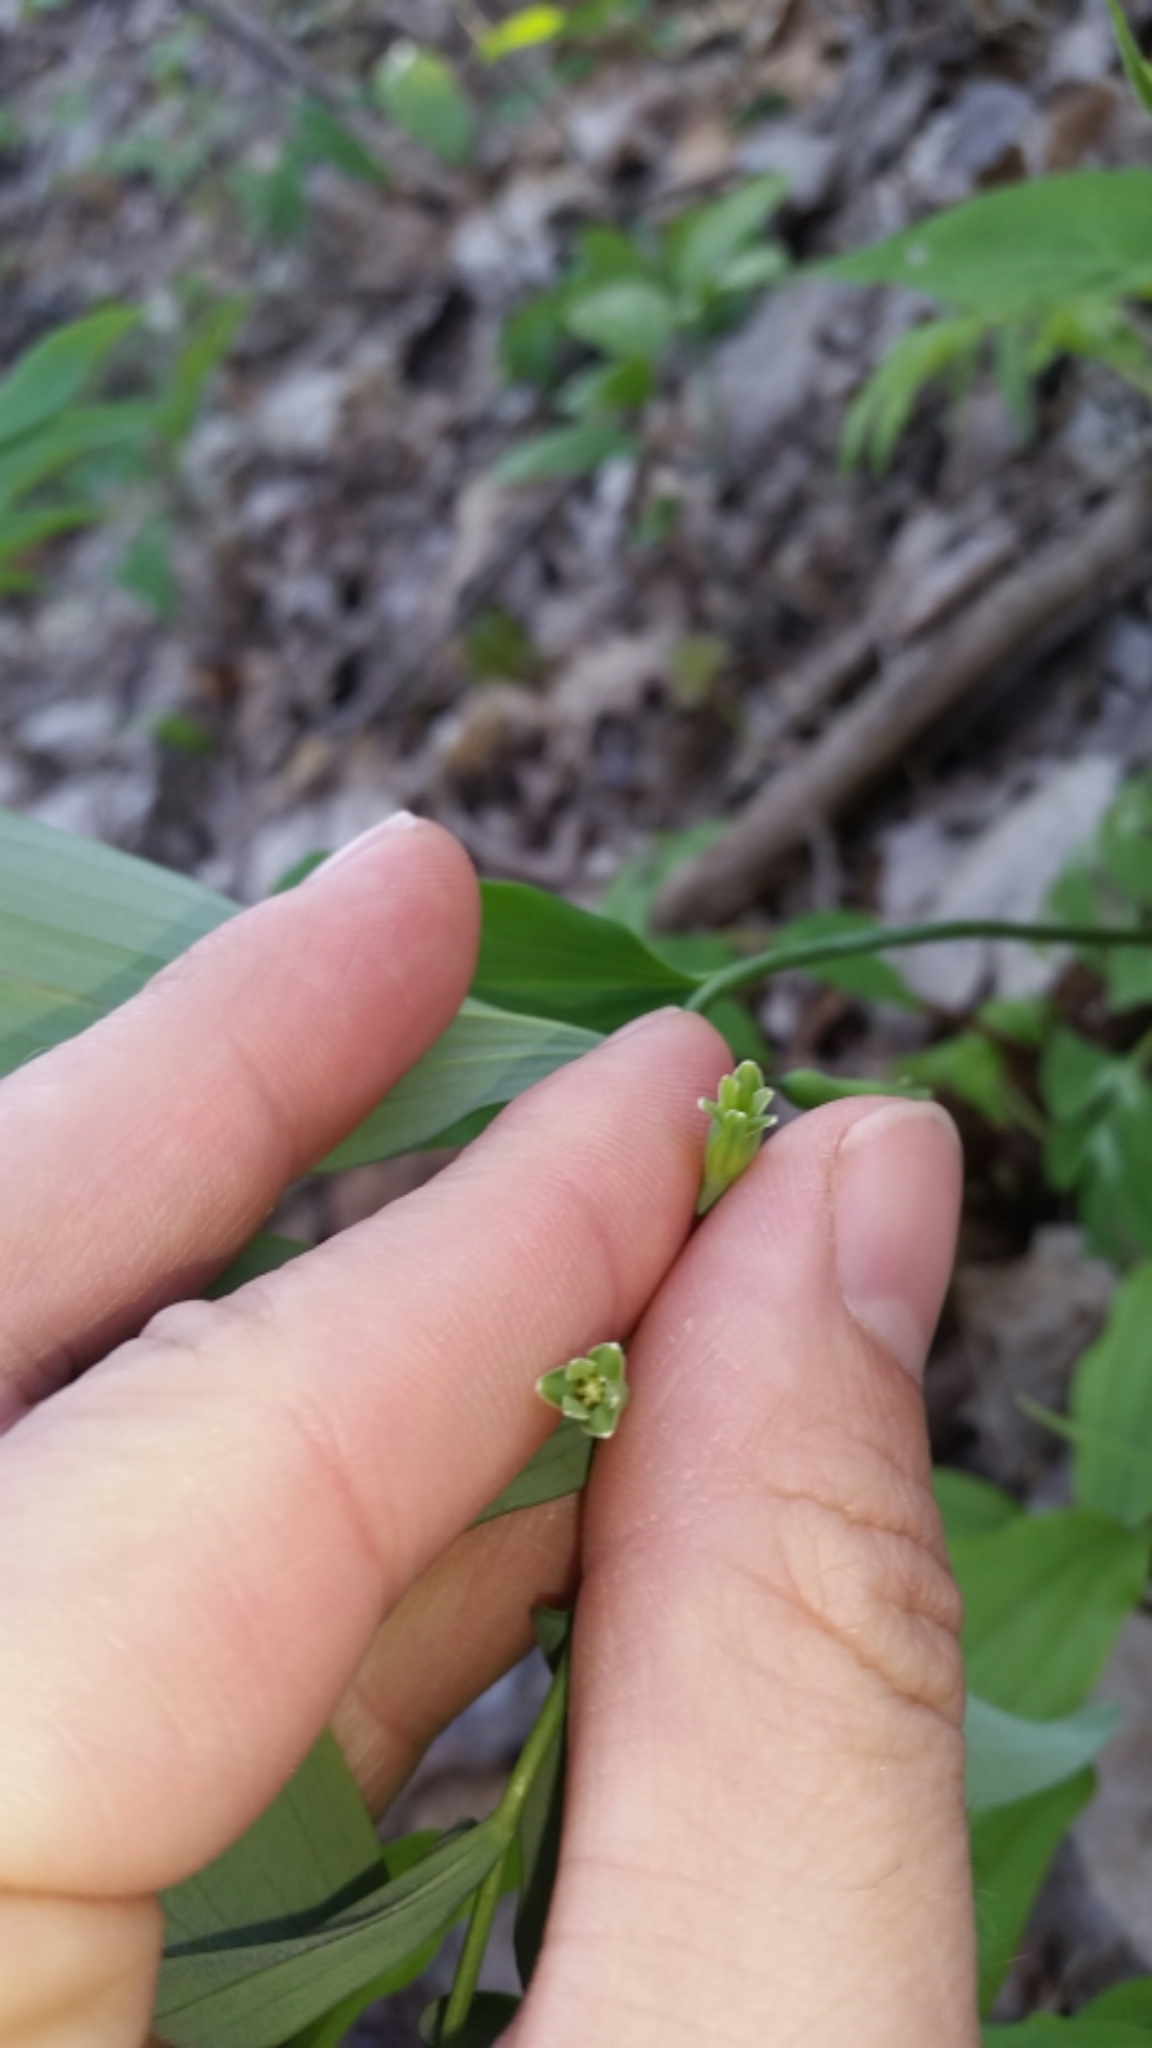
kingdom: Plantae
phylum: Tracheophyta
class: Liliopsida
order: Asparagales
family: Asparagaceae
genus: Polygonatum
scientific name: Polygonatum pubescens
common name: Downy solomon's seal
